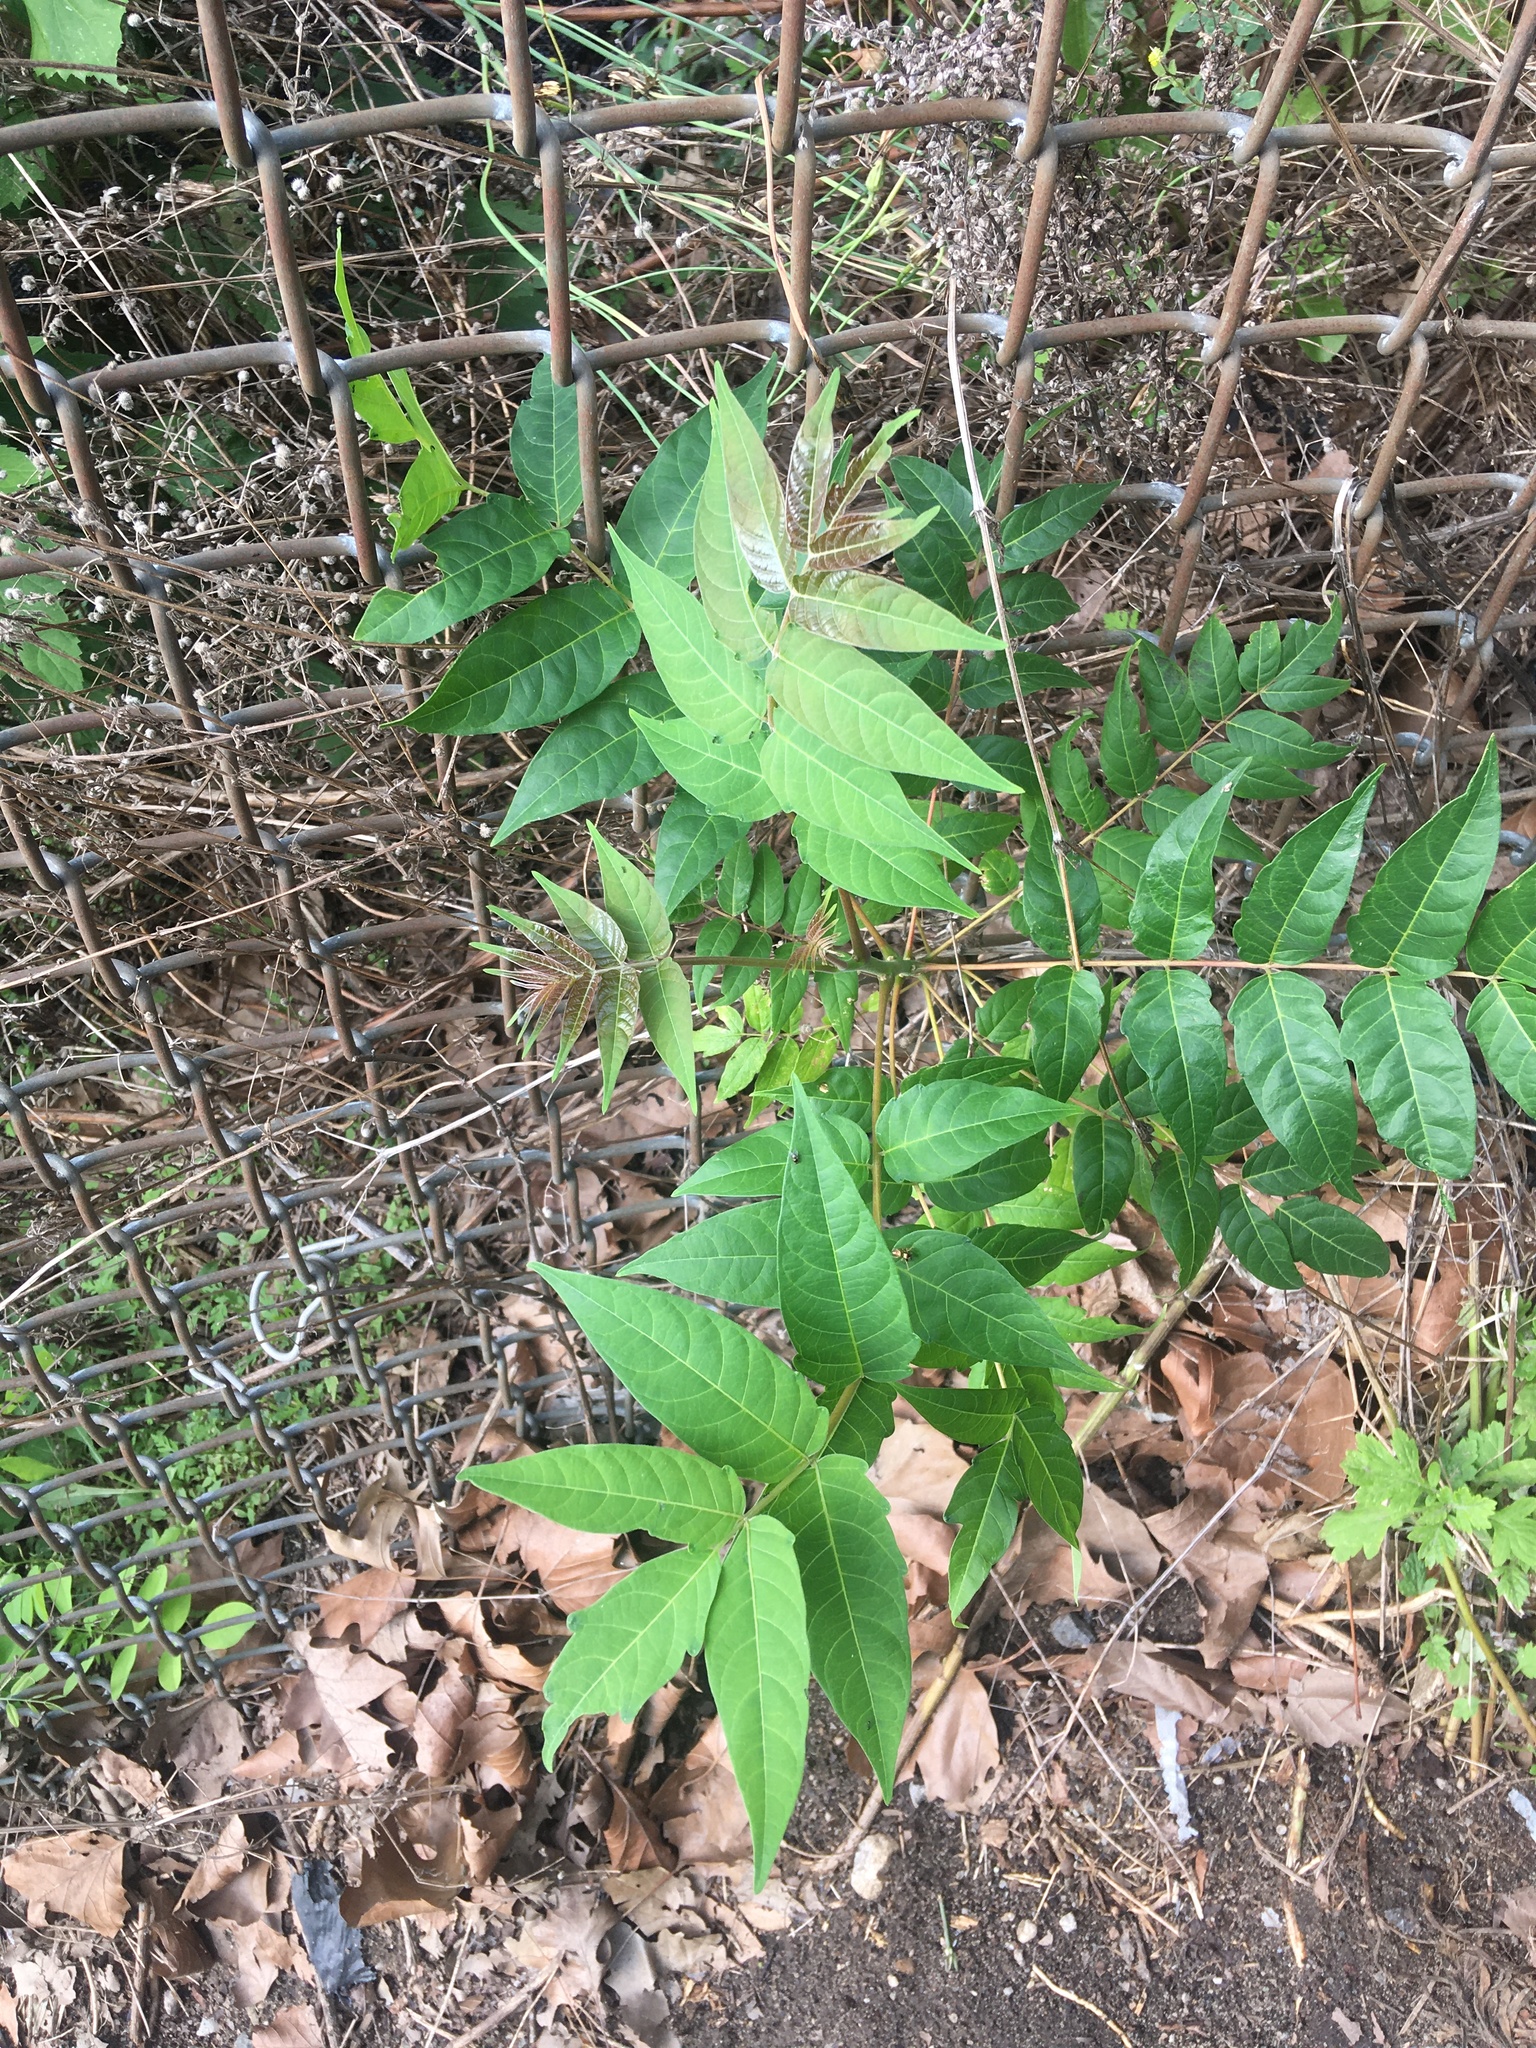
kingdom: Plantae
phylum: Tracheophyta
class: Magnoliopsida
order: Sapindales
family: Simaroubaceae
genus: Ailanthus
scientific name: Ailanthus altissima
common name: Tree-of-heaven
